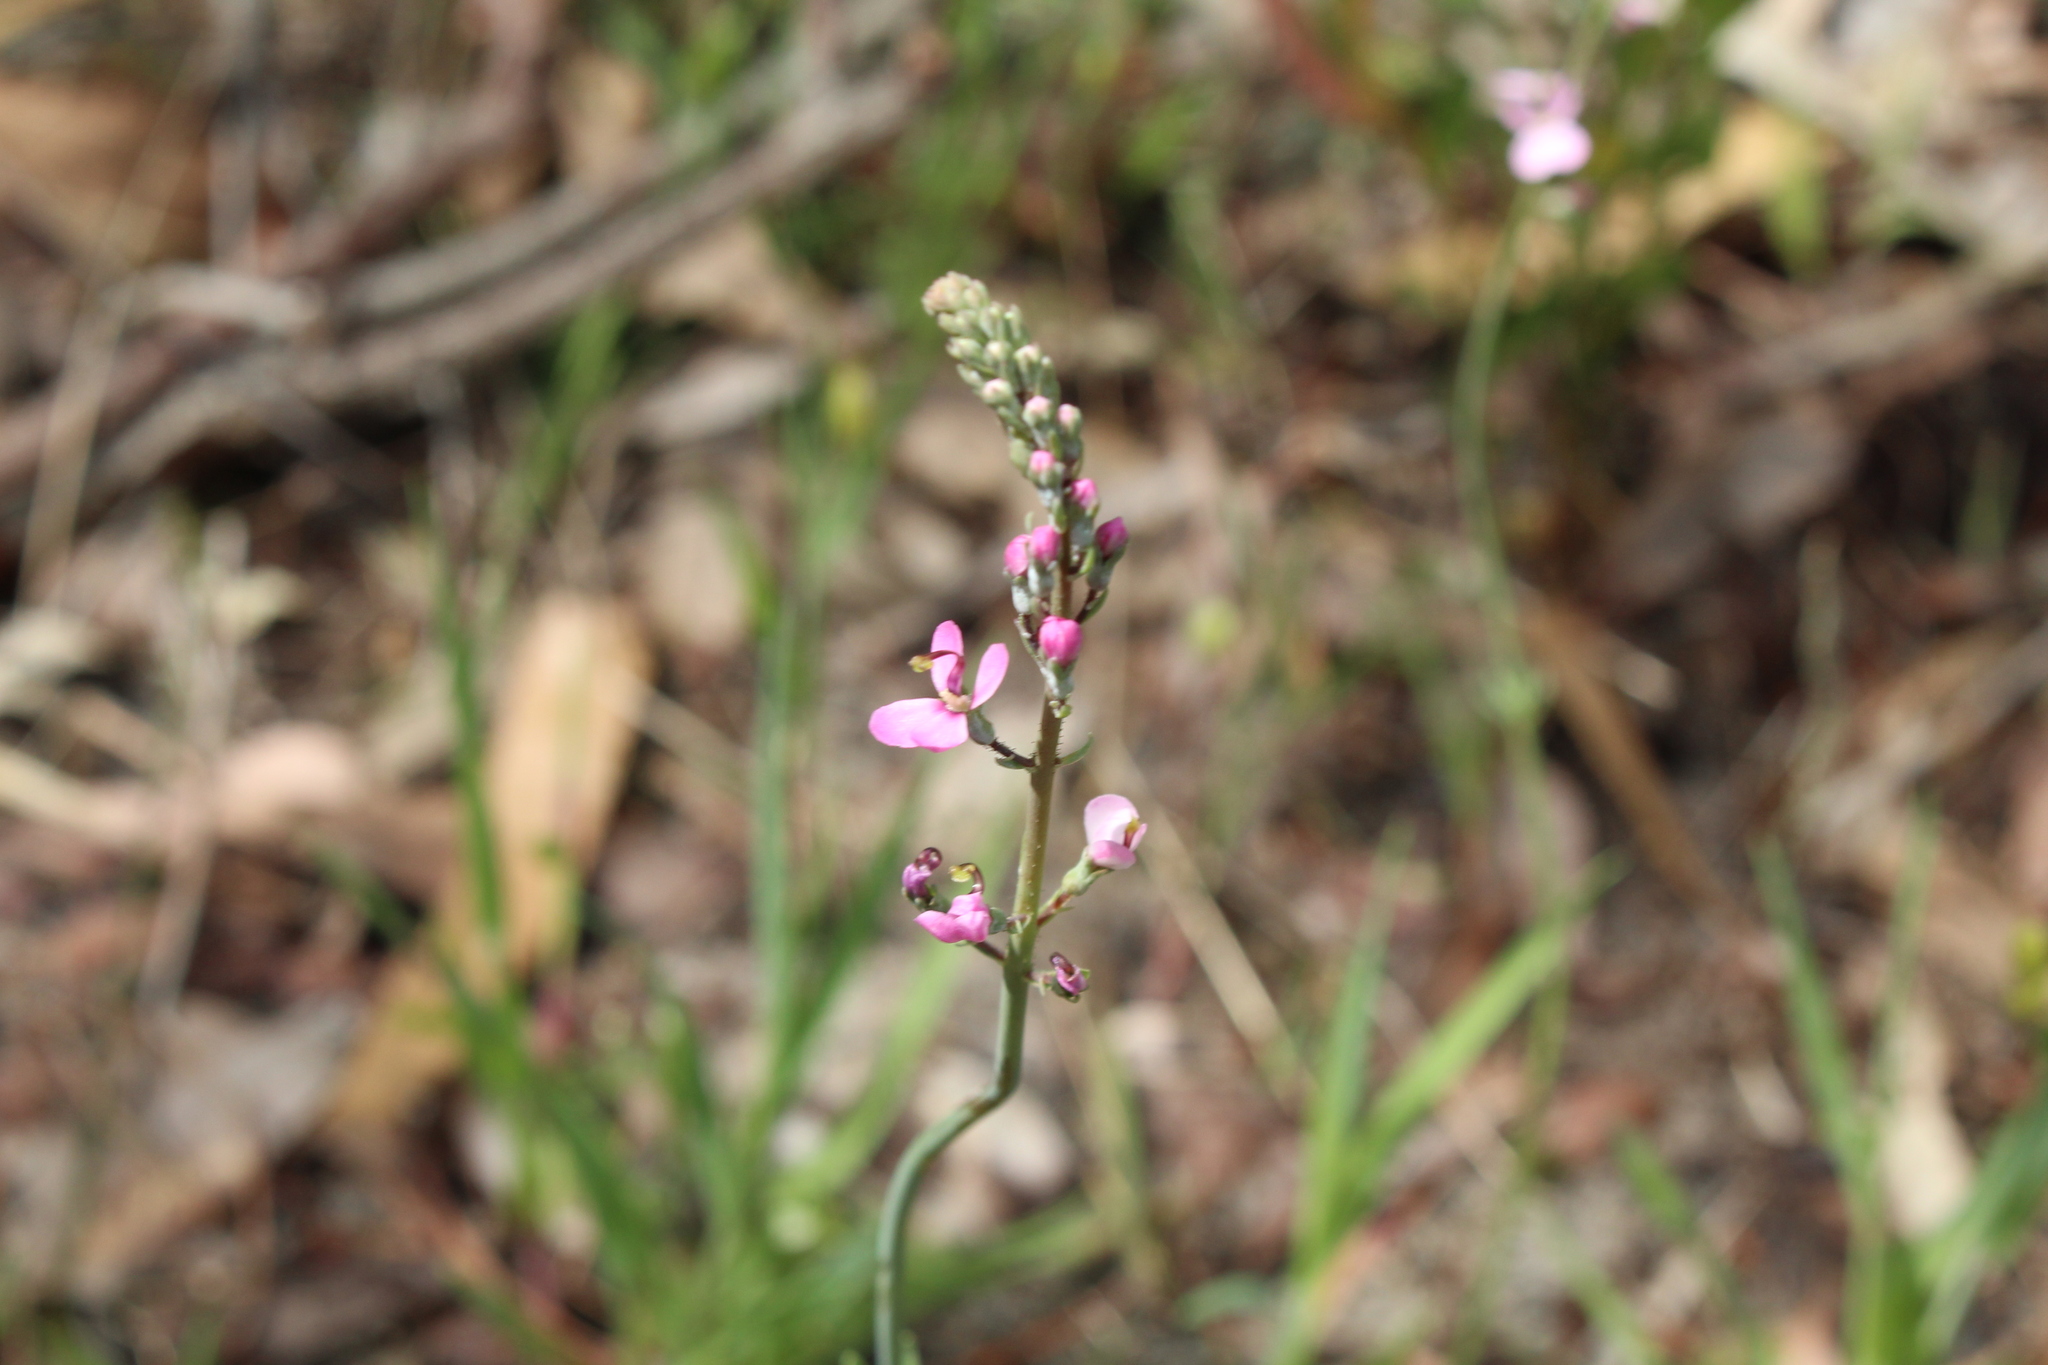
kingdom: Plantae
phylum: Tracheophyta
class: Magnoliopsida
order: Asterales
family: Stylidiaceae
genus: Stylidium
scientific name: Stylidium brunonianum
